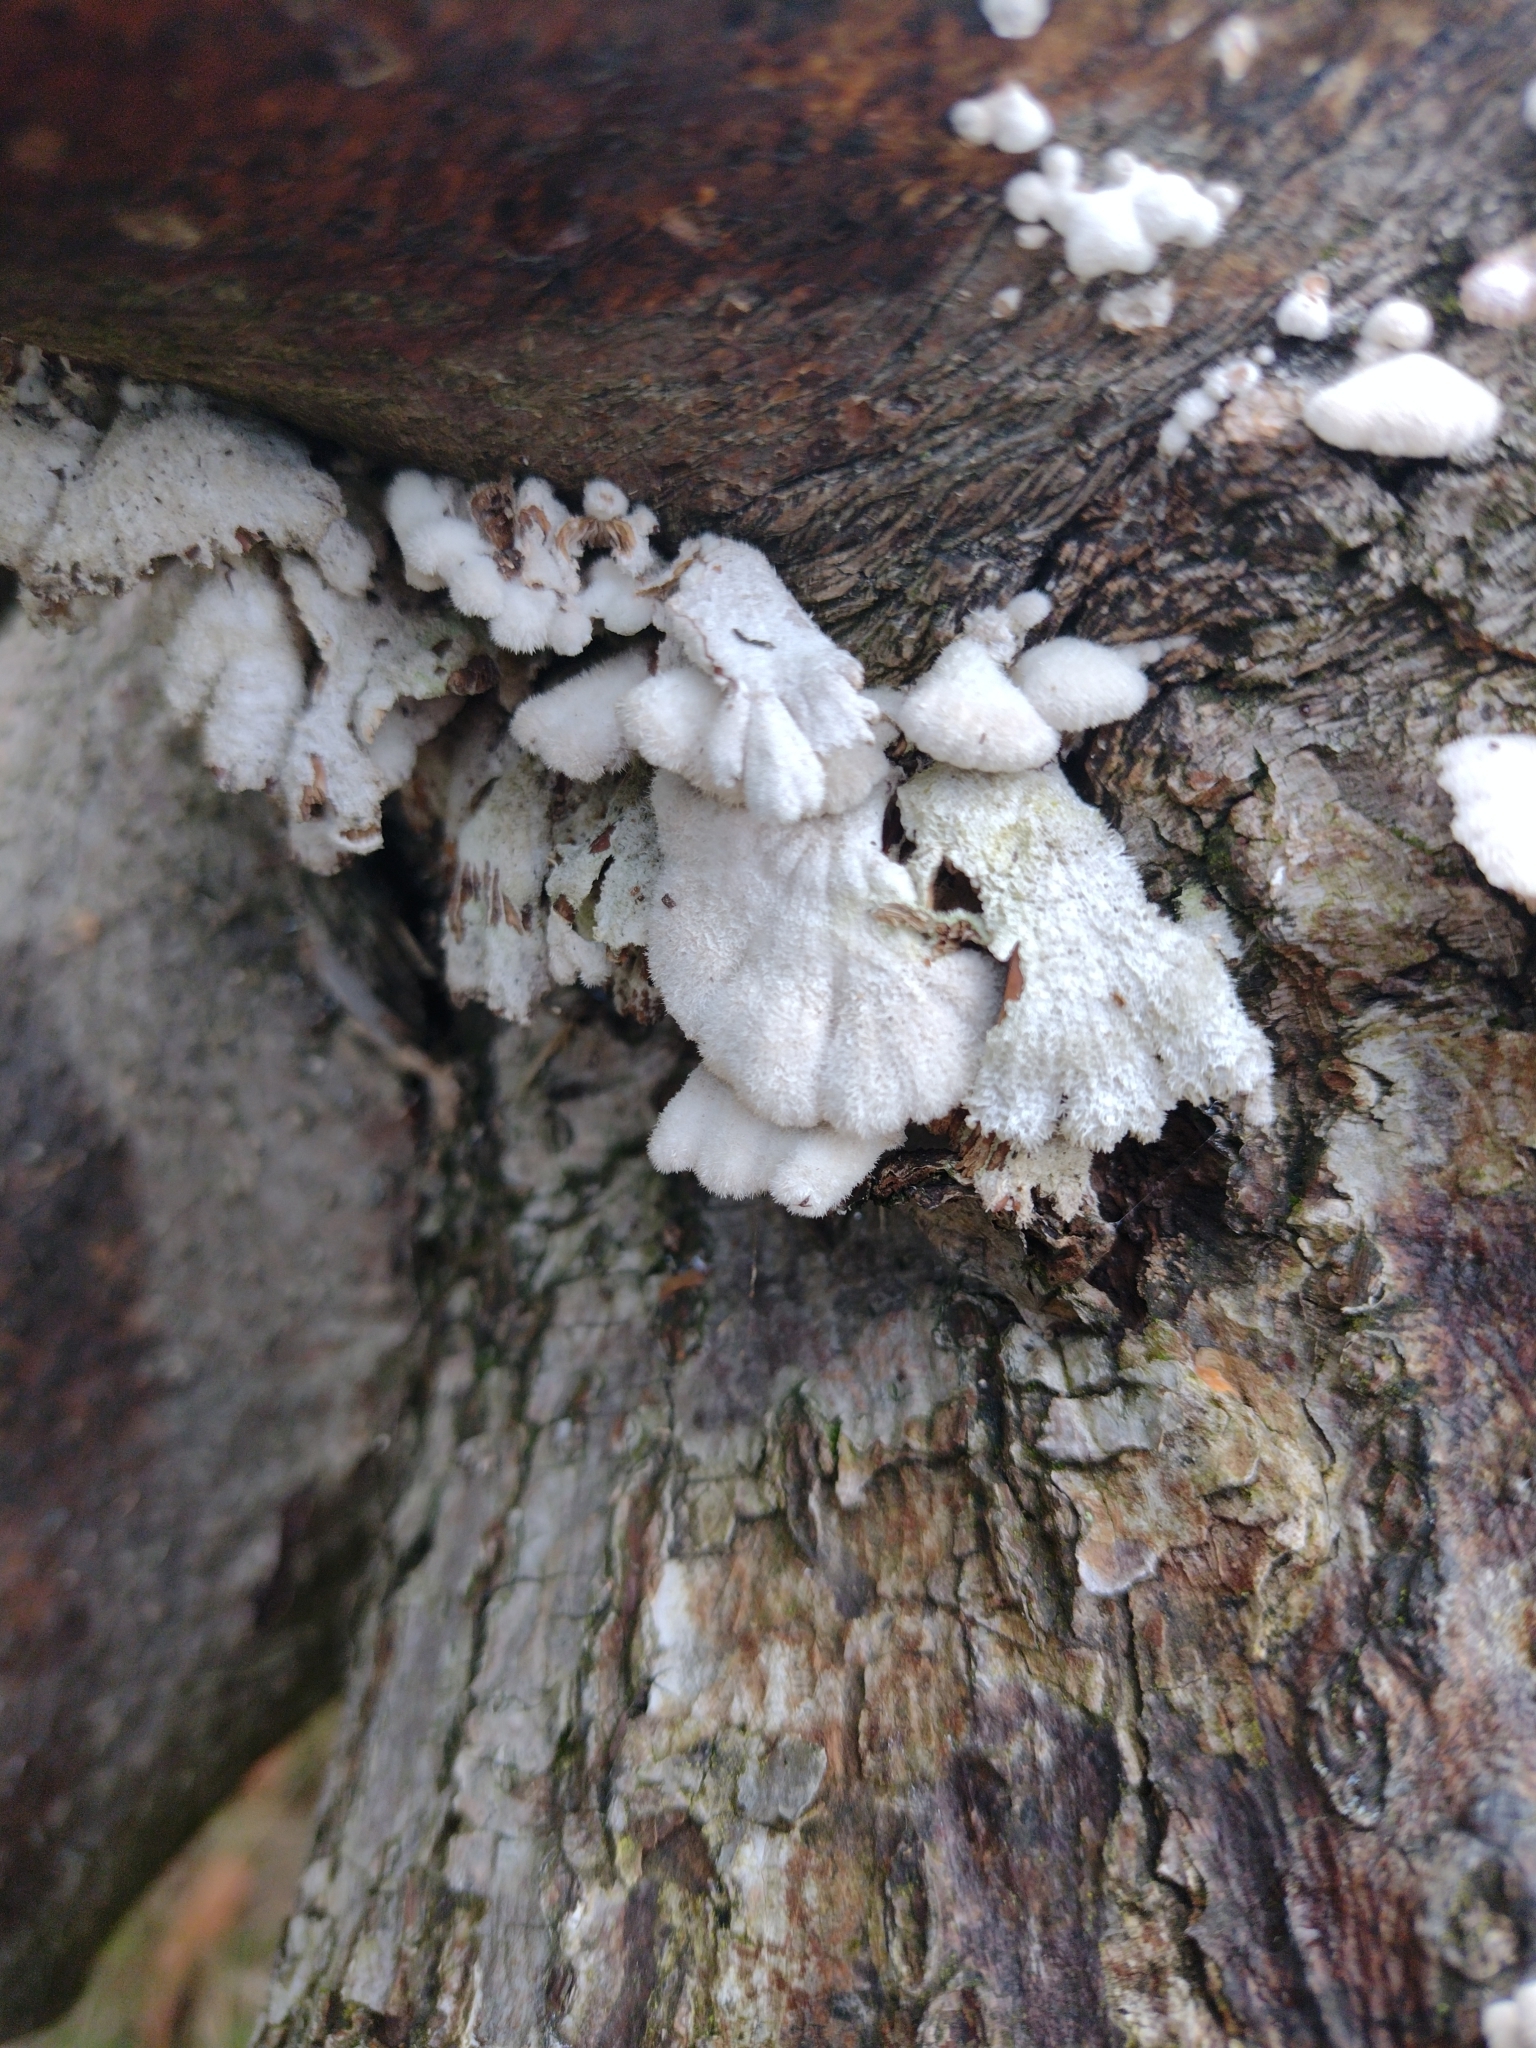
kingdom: Fungi
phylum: Basidiomycota
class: Agaricomycetes
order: Agaricales
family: Schizophyllaceae
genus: Schizophyllum
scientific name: Schizophyllum commune
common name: Common porecrust
